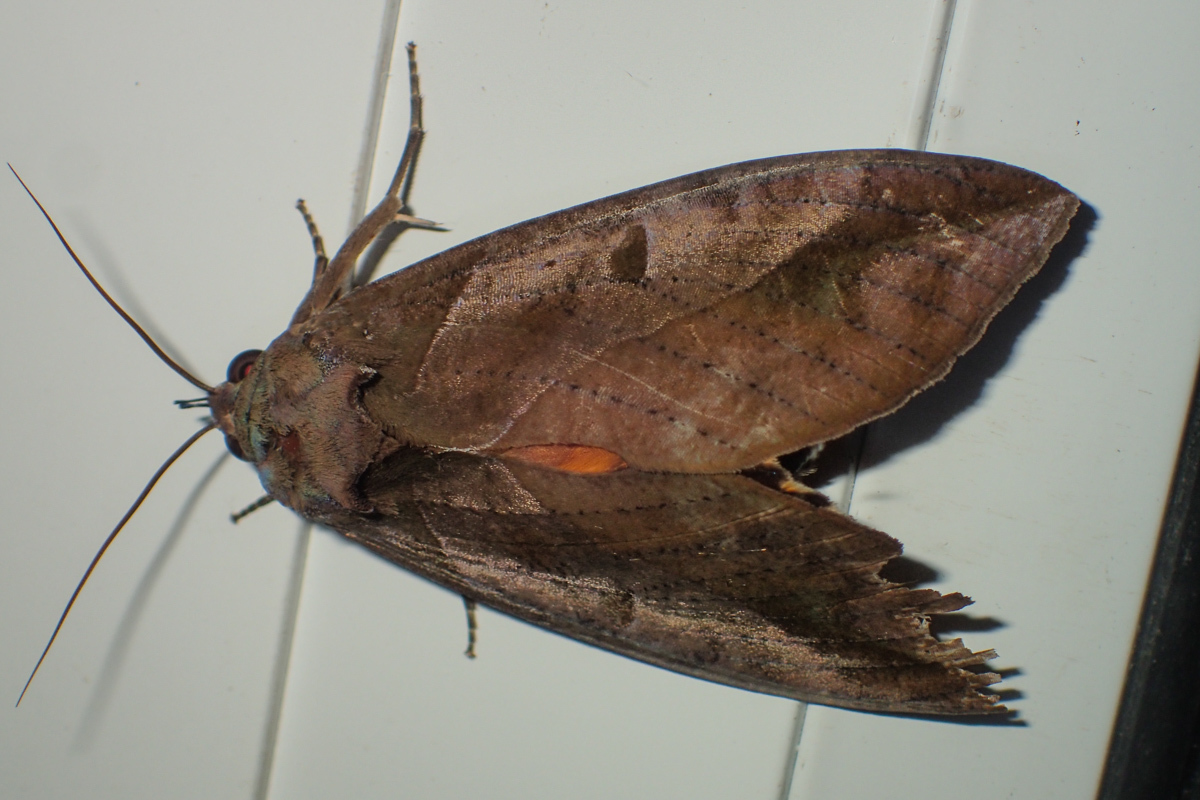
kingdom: Animalia
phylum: Arthropoda
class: Insecta
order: Lepidoptera
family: Erebidae
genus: Eudocima
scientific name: Eudocima phalonia
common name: Wasp
